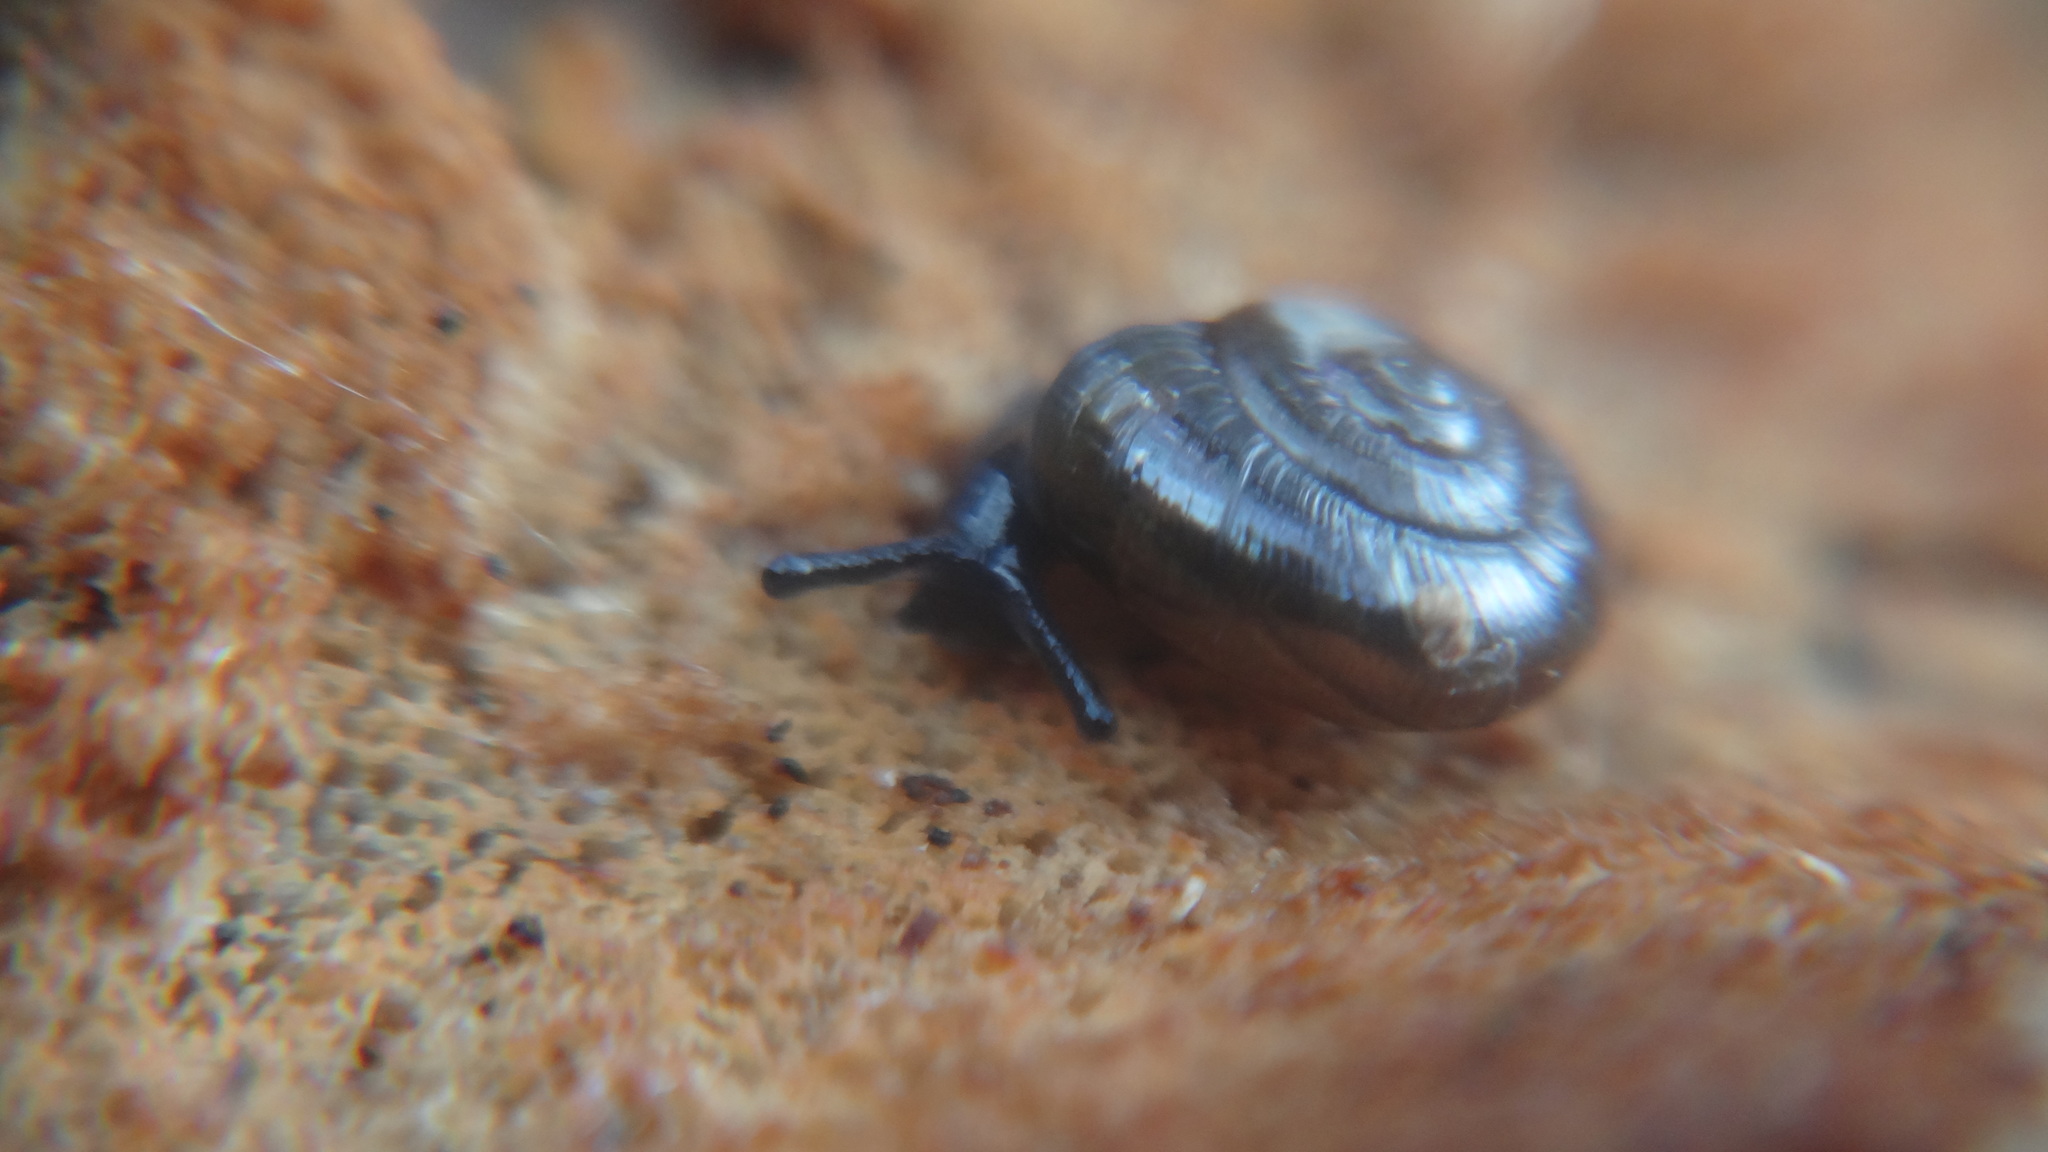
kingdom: Animalia
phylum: Mollusca
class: Gastropoda
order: Stylommatophora
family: Gastrodontidae
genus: Zonitoides
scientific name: Zonitoides nitidus
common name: Shiny glass snail
